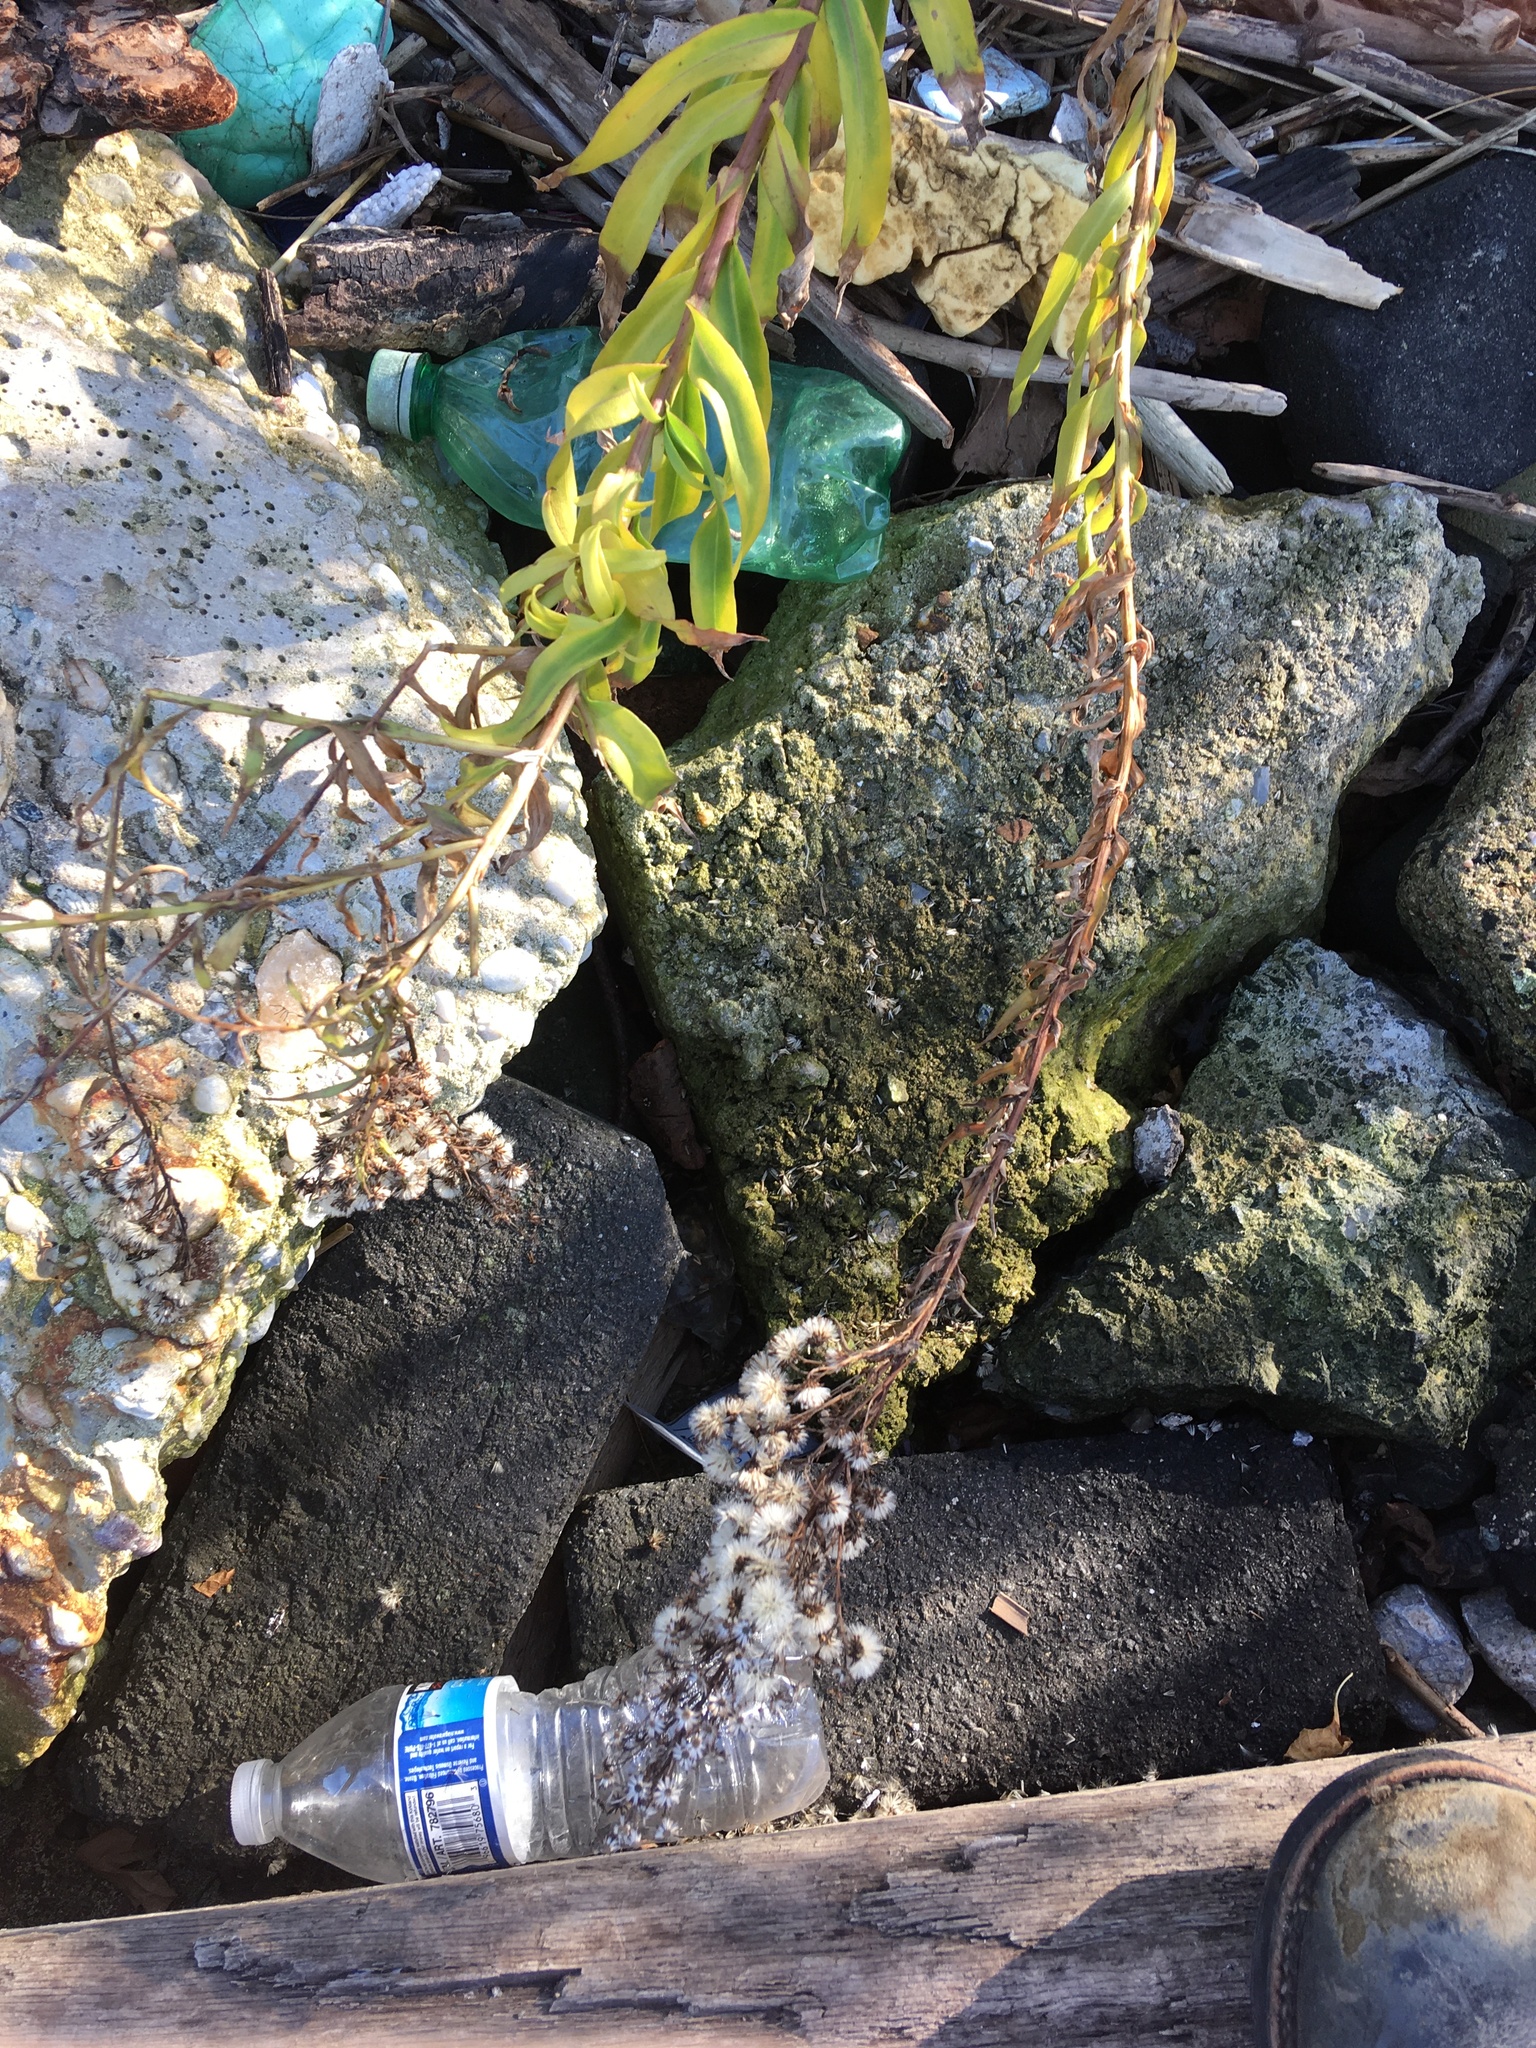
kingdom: Plantae
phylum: Tracheophyta
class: Magnoliopsida
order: Asterales
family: Asteraceae
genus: Solidago
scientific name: Solidago sempervirens
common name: Salt-marsh goldenrod
